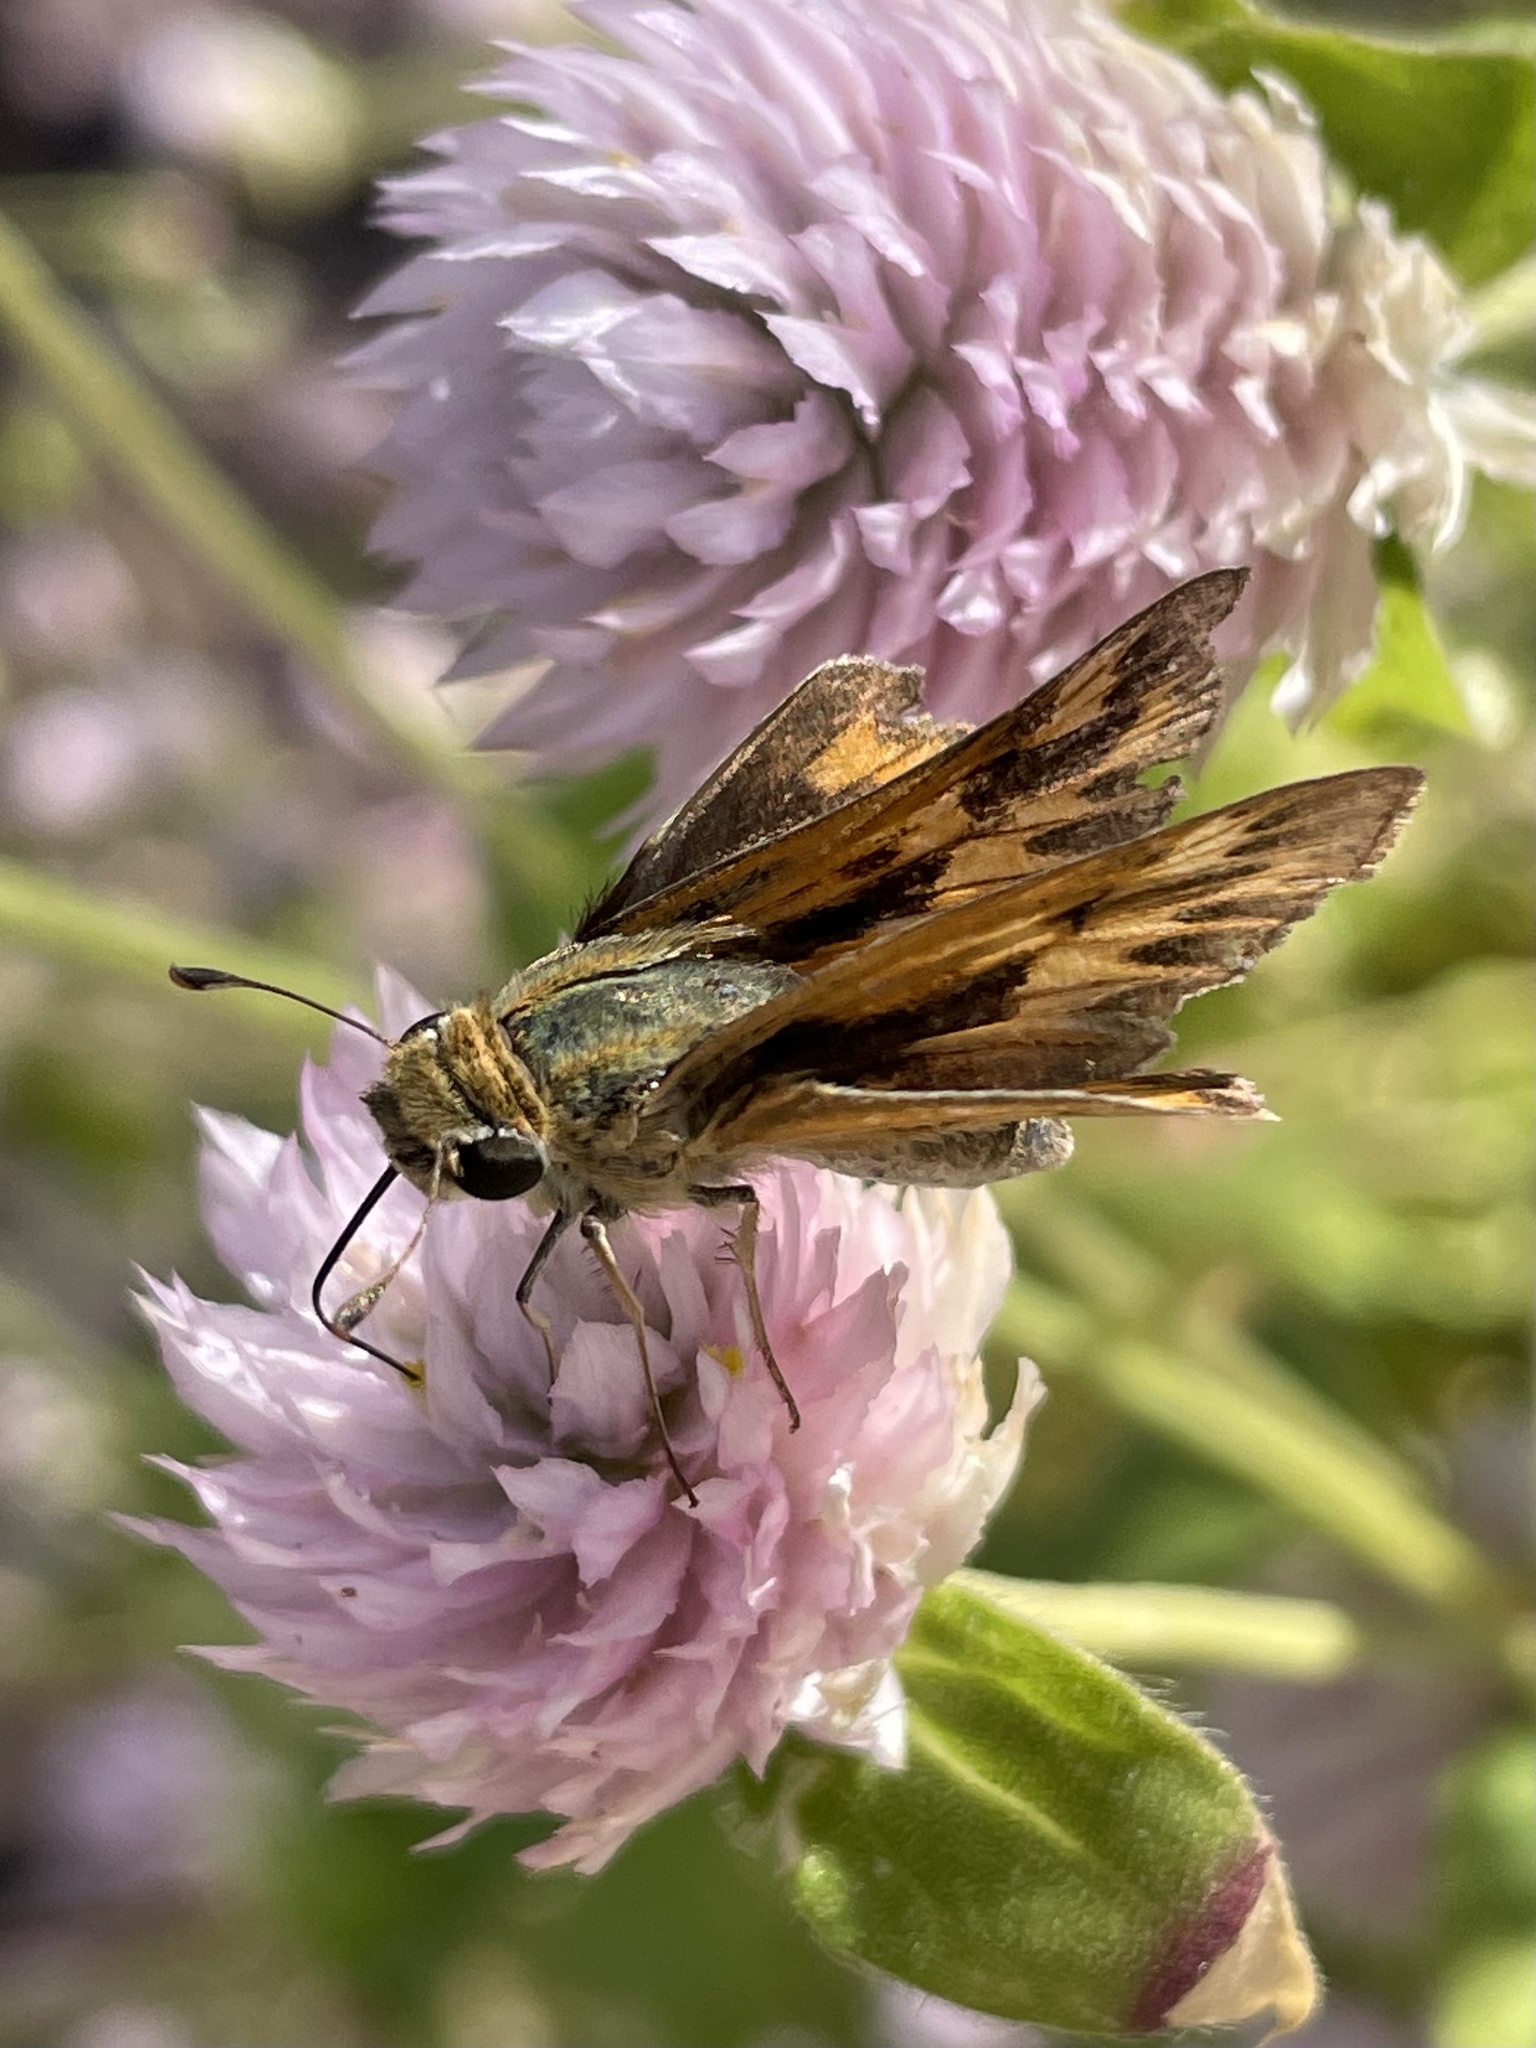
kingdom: Animalia
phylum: Arthropoda
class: Insecta
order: Lepidoptera
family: Hesperiidae
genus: Hylephila
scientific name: Hylephila phyleus
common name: Fiery skipper
